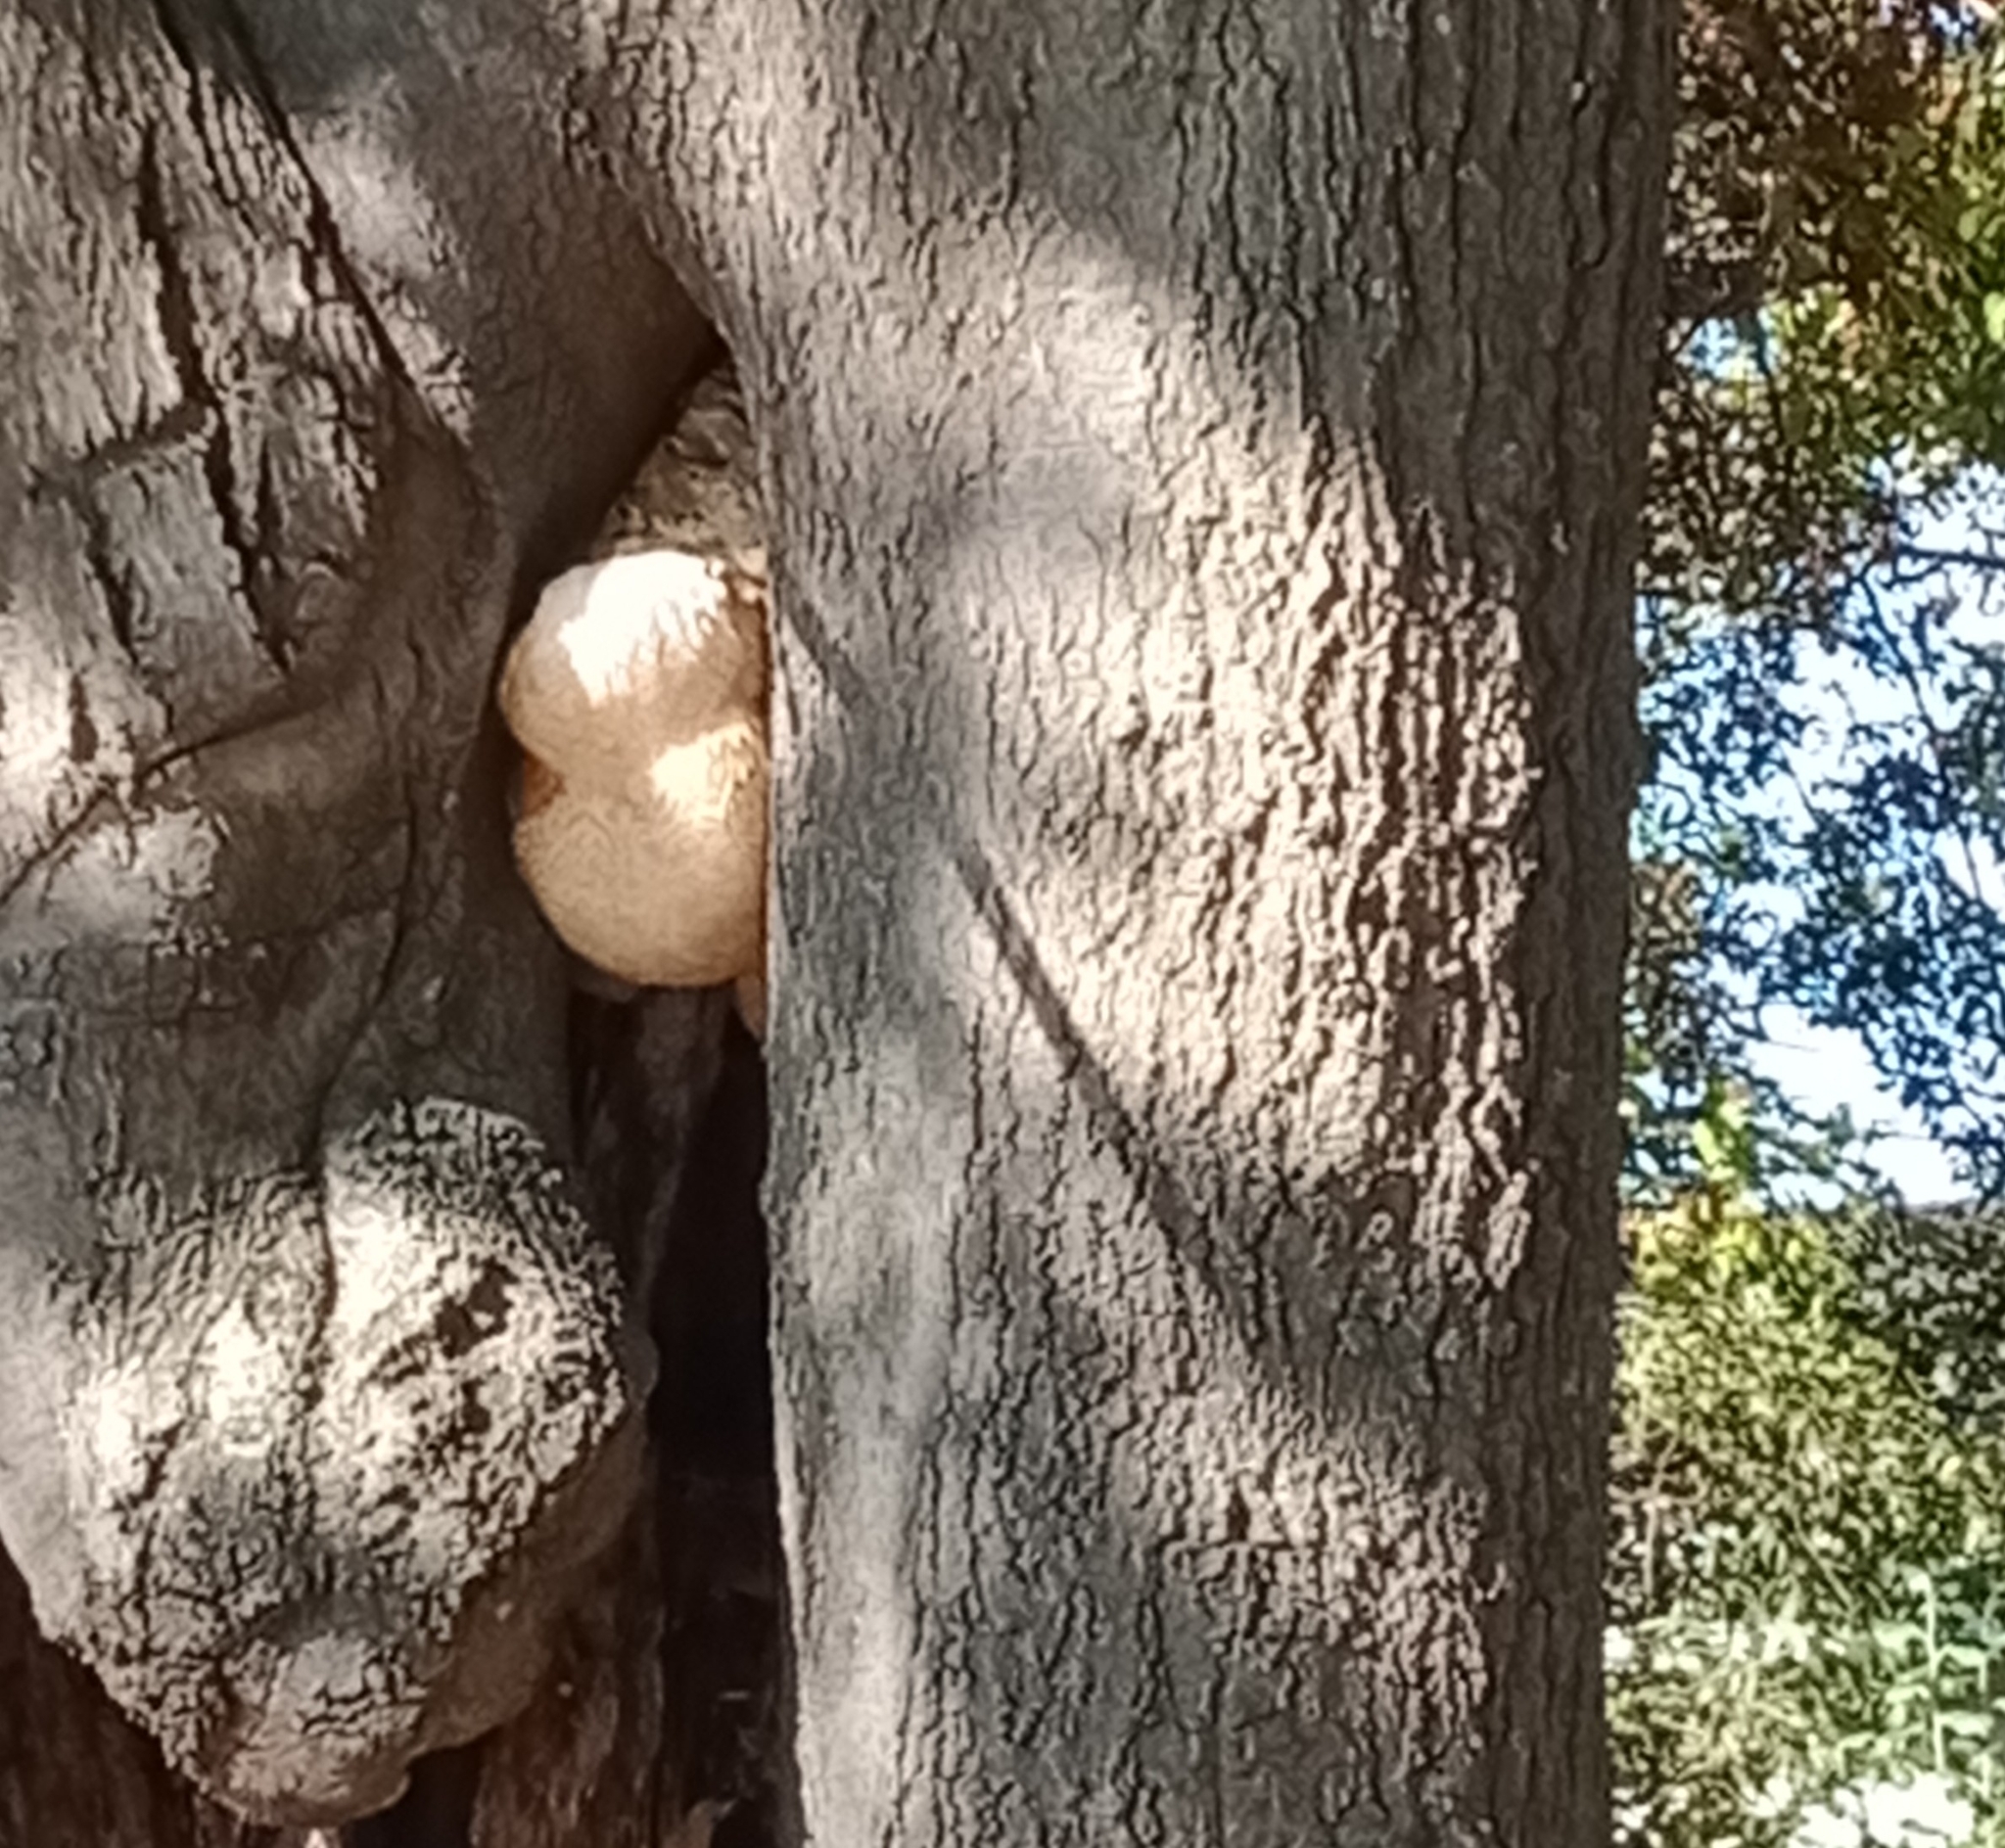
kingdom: Fungi
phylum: Basidiomycota
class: Agaricomycetes
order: Russulales
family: Hericiaceae
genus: Hericium
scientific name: Hericium erinaceus
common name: Bearded tooth
